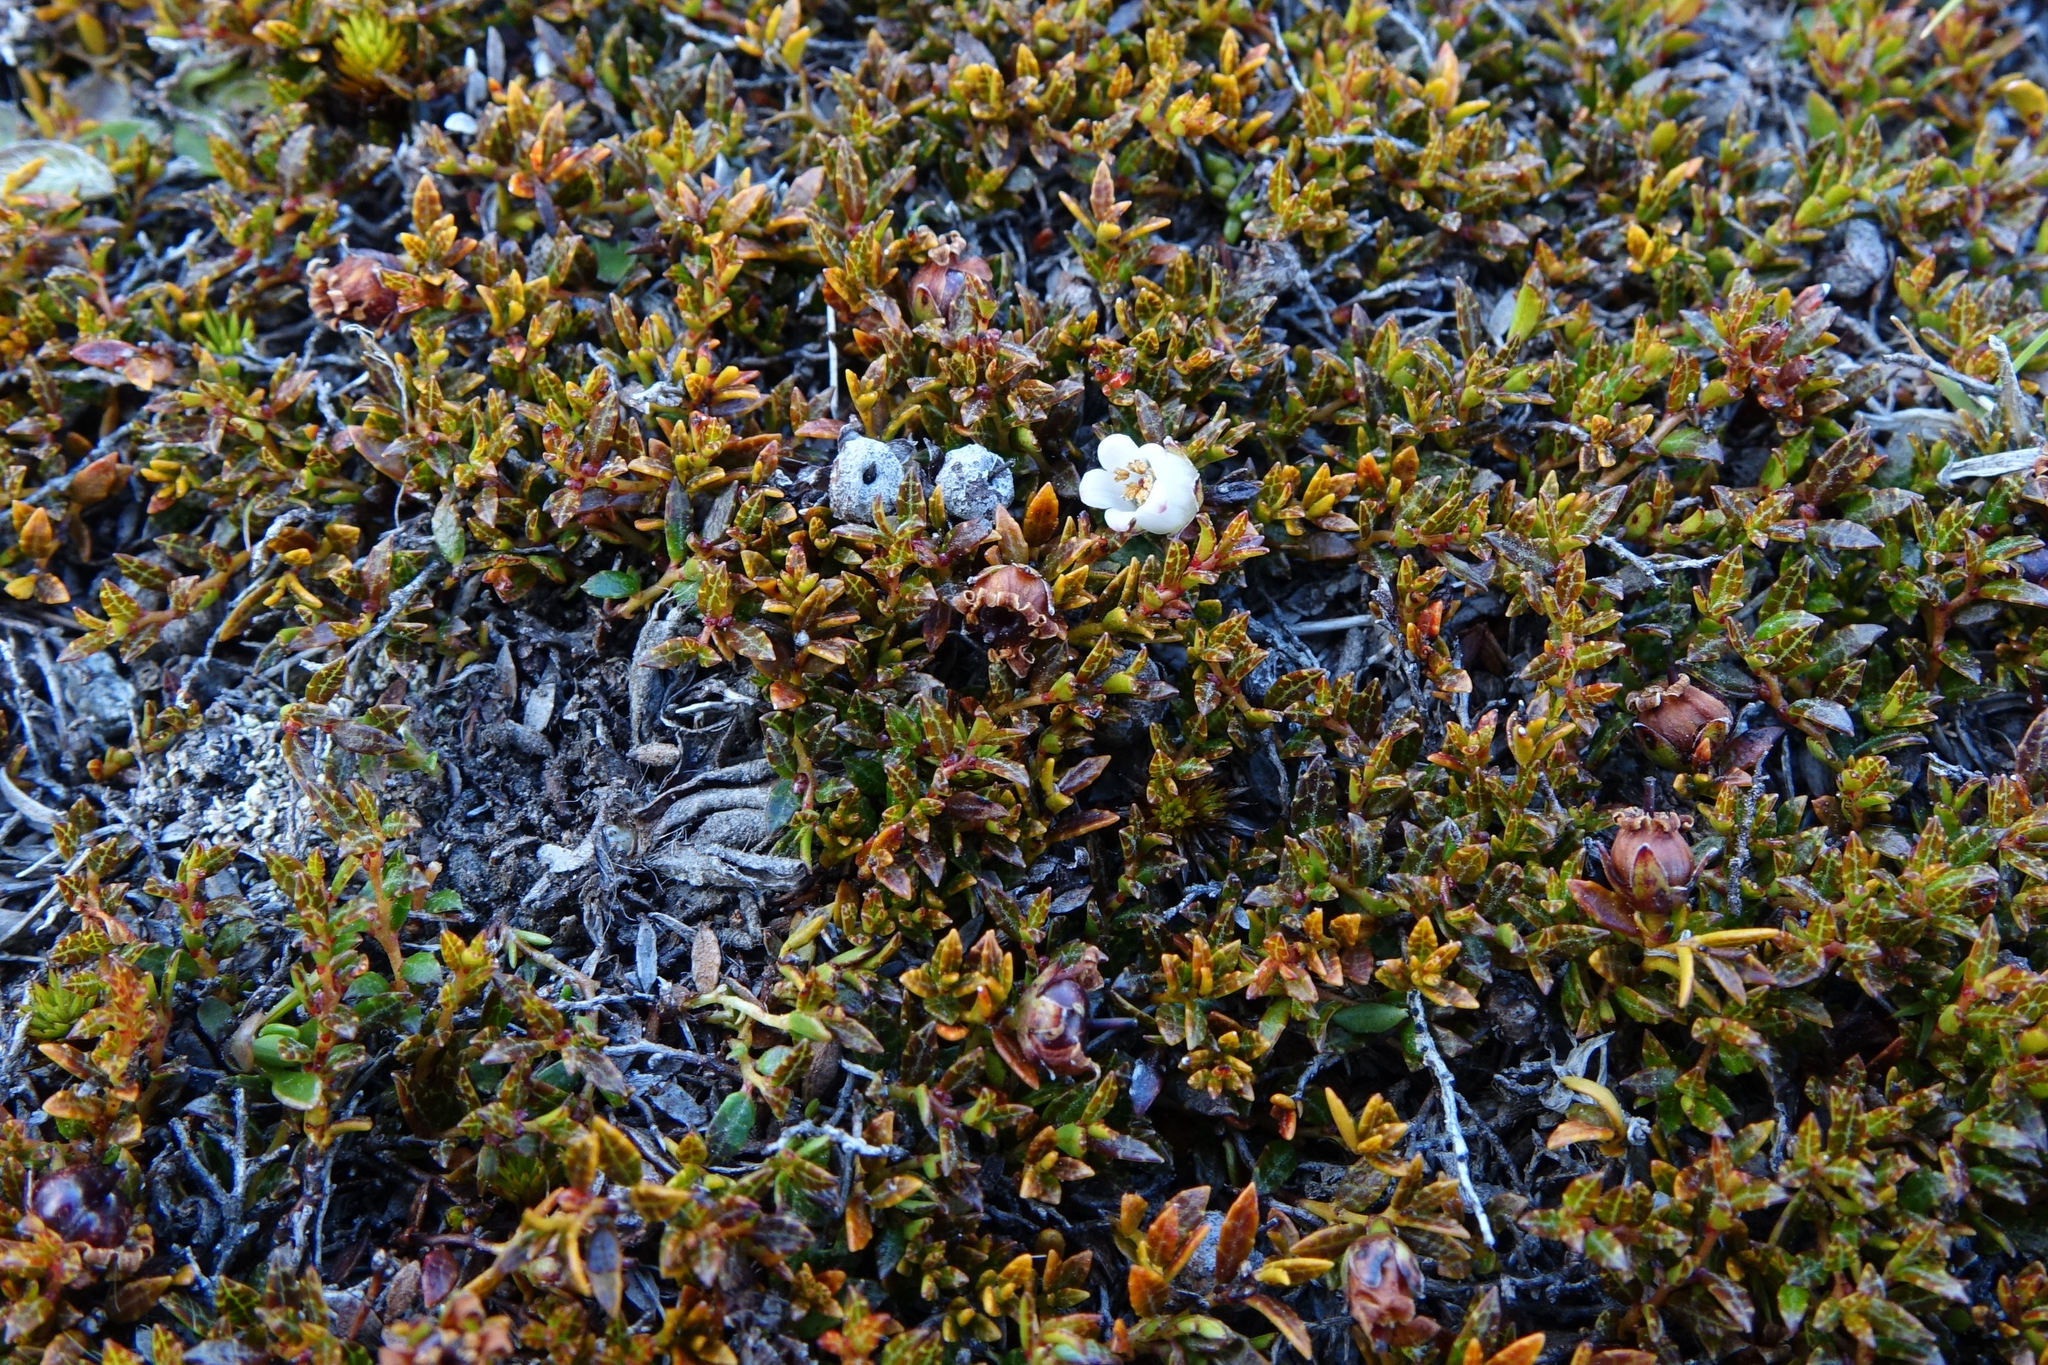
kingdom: Plantae
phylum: Tracheophyta
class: Magnoliopsida
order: Ericales
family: Ericaceae
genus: Gaultheria
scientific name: Gaultheria parvula
